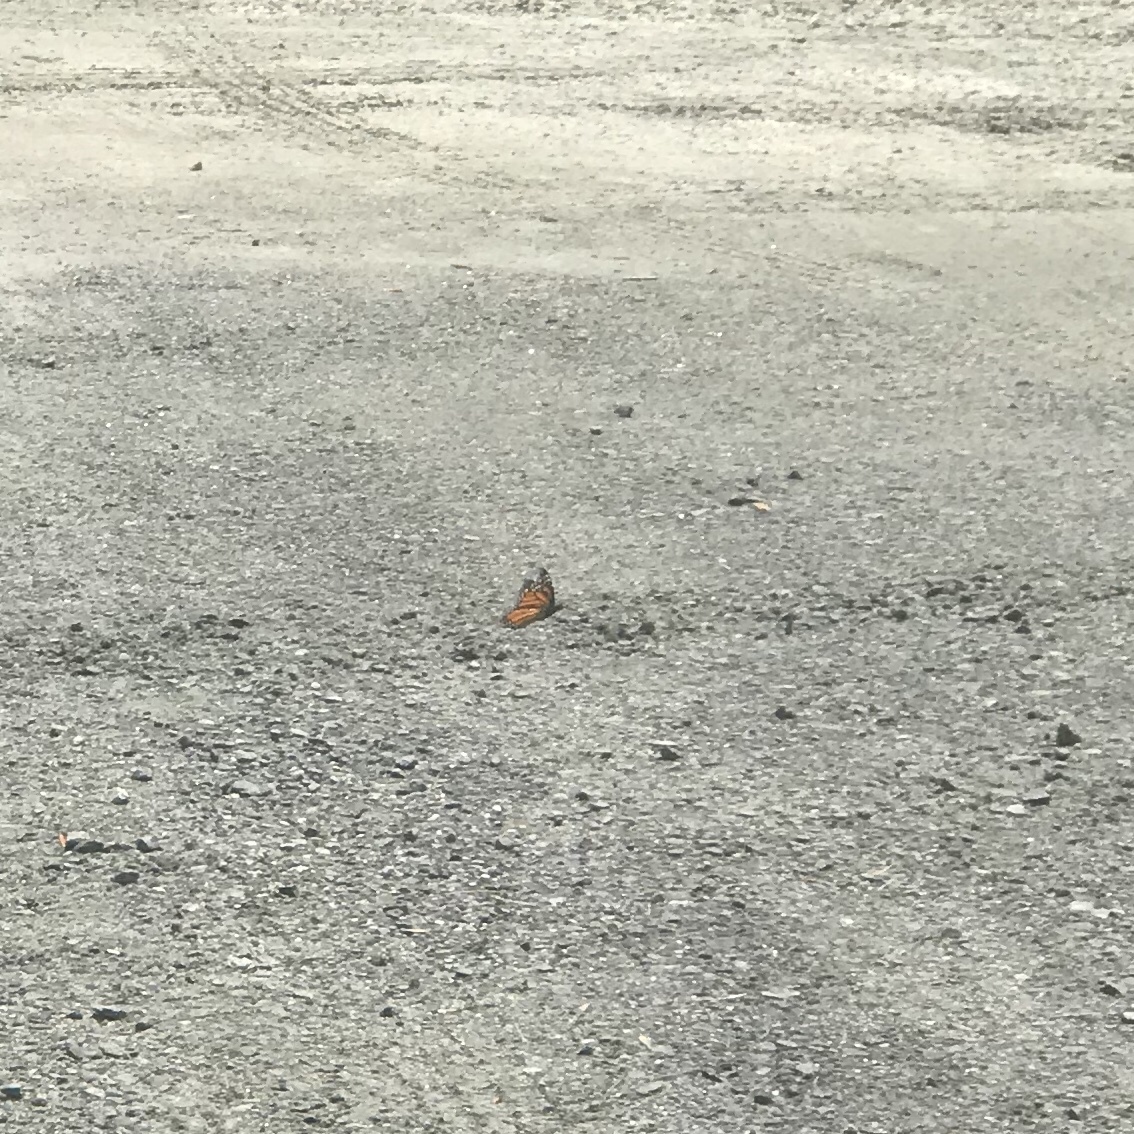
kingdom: Animalia
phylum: Arthropoda
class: Insecta
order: Lepidoptera
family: Nymphalidae
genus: Danaus
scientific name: Danaus plexippus
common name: Monarch
